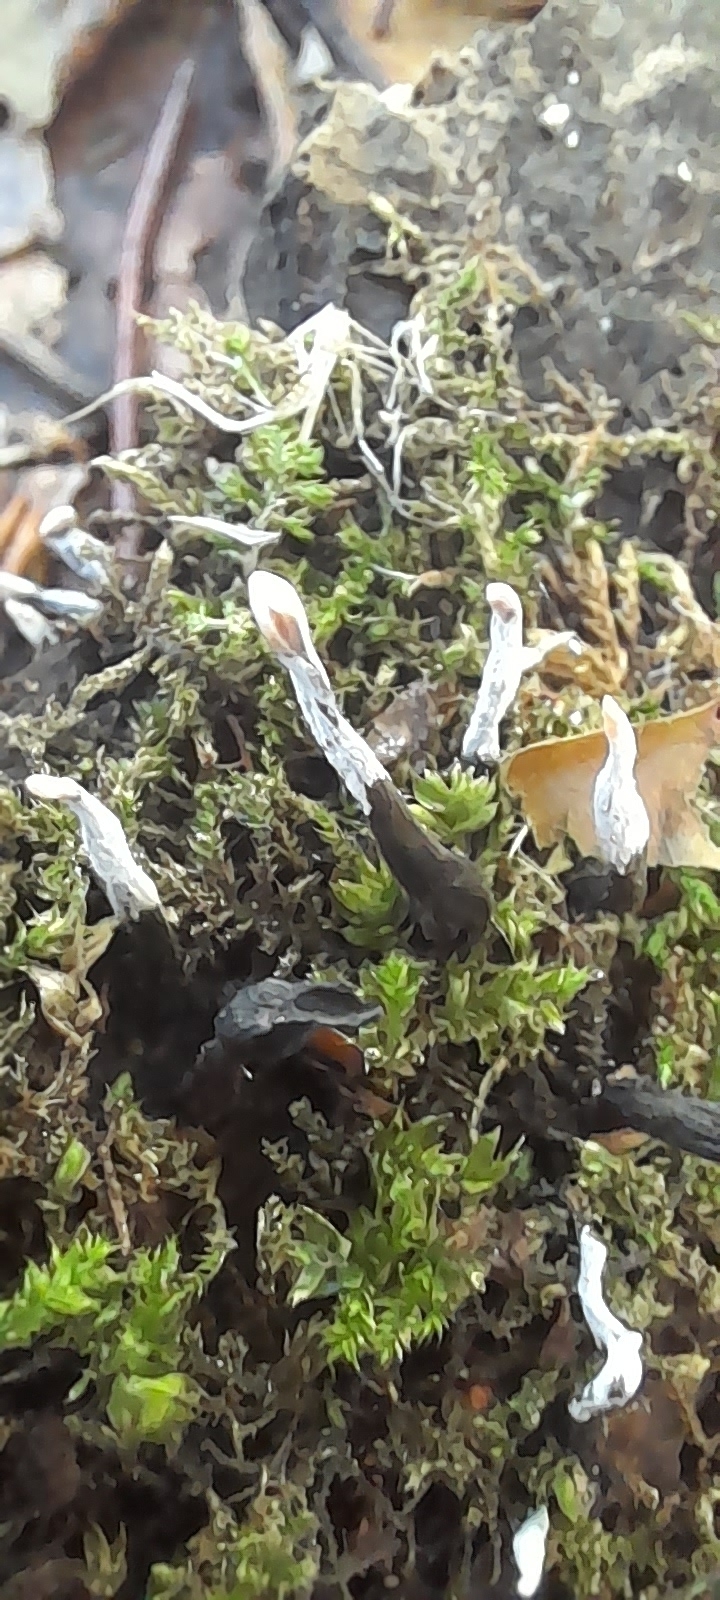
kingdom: Fungi
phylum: Ascomycota
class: Sordariomycetes
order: Xylariales
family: Xylariaceae
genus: Xylaria
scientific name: Xylaria hypoxylon
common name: Candle-snuff fungus
